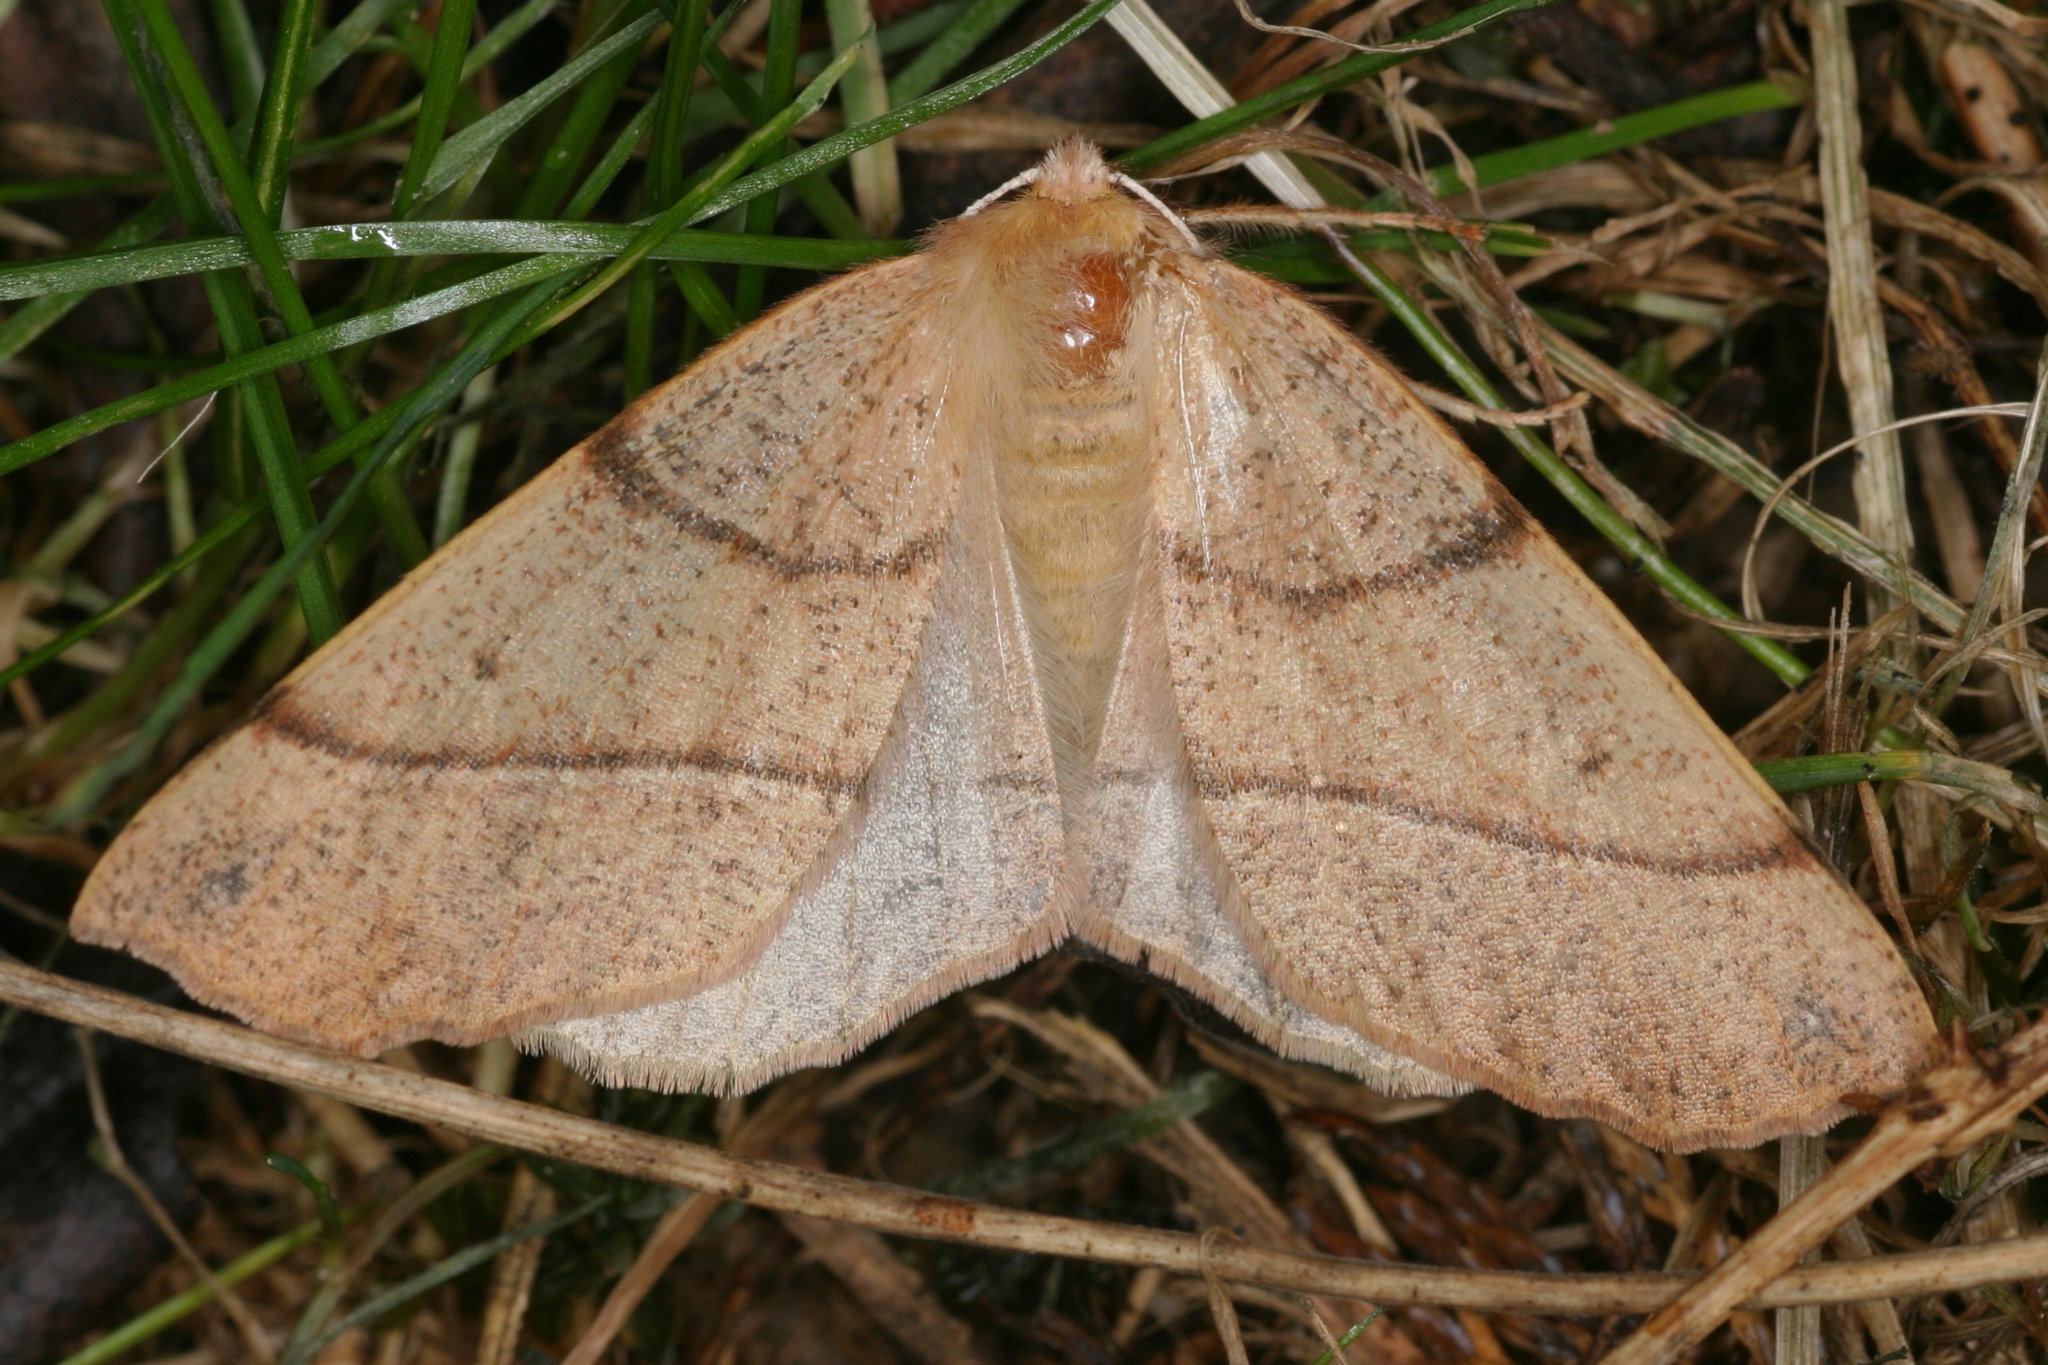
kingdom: Animalia
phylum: Arthropoda
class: Insecta
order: Lepidoptera
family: Geometridae
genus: Colotois
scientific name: Colotois pennaria
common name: Feathered thorn
